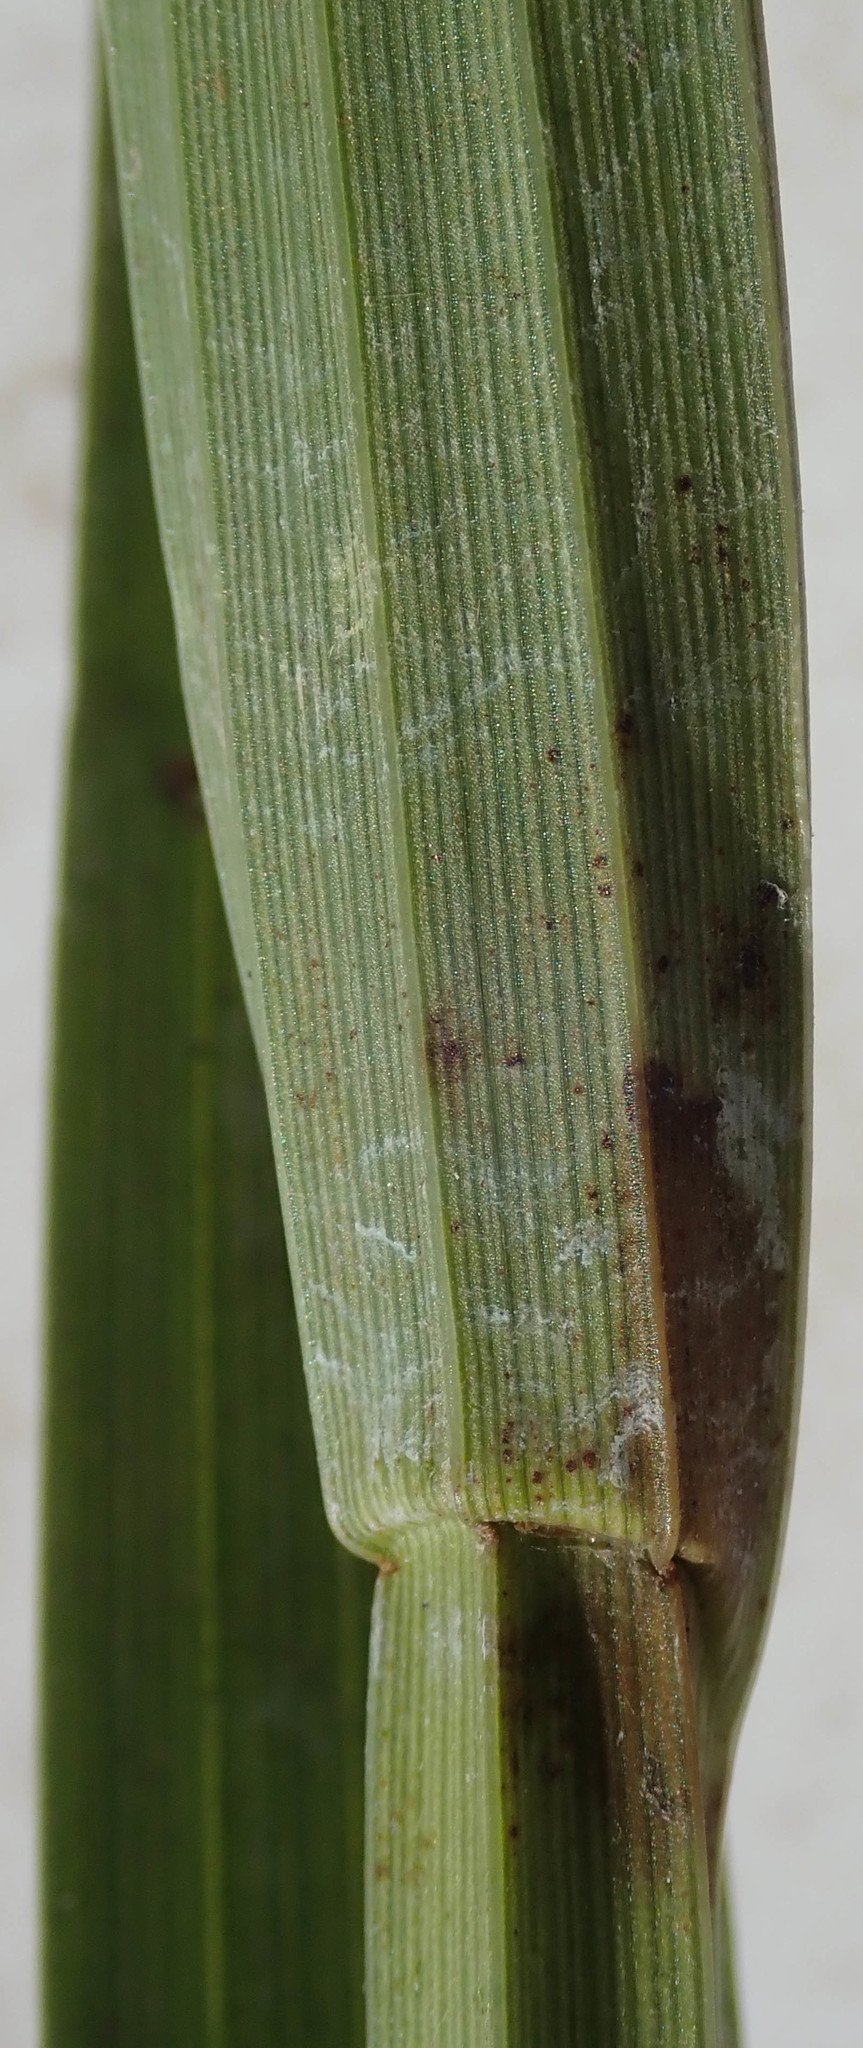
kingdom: Plantae
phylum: Tracheophyta
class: Liliopsida
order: Poales
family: Cyperaceae
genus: Fuirena
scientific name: Fuirena umbellata
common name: Yefen
